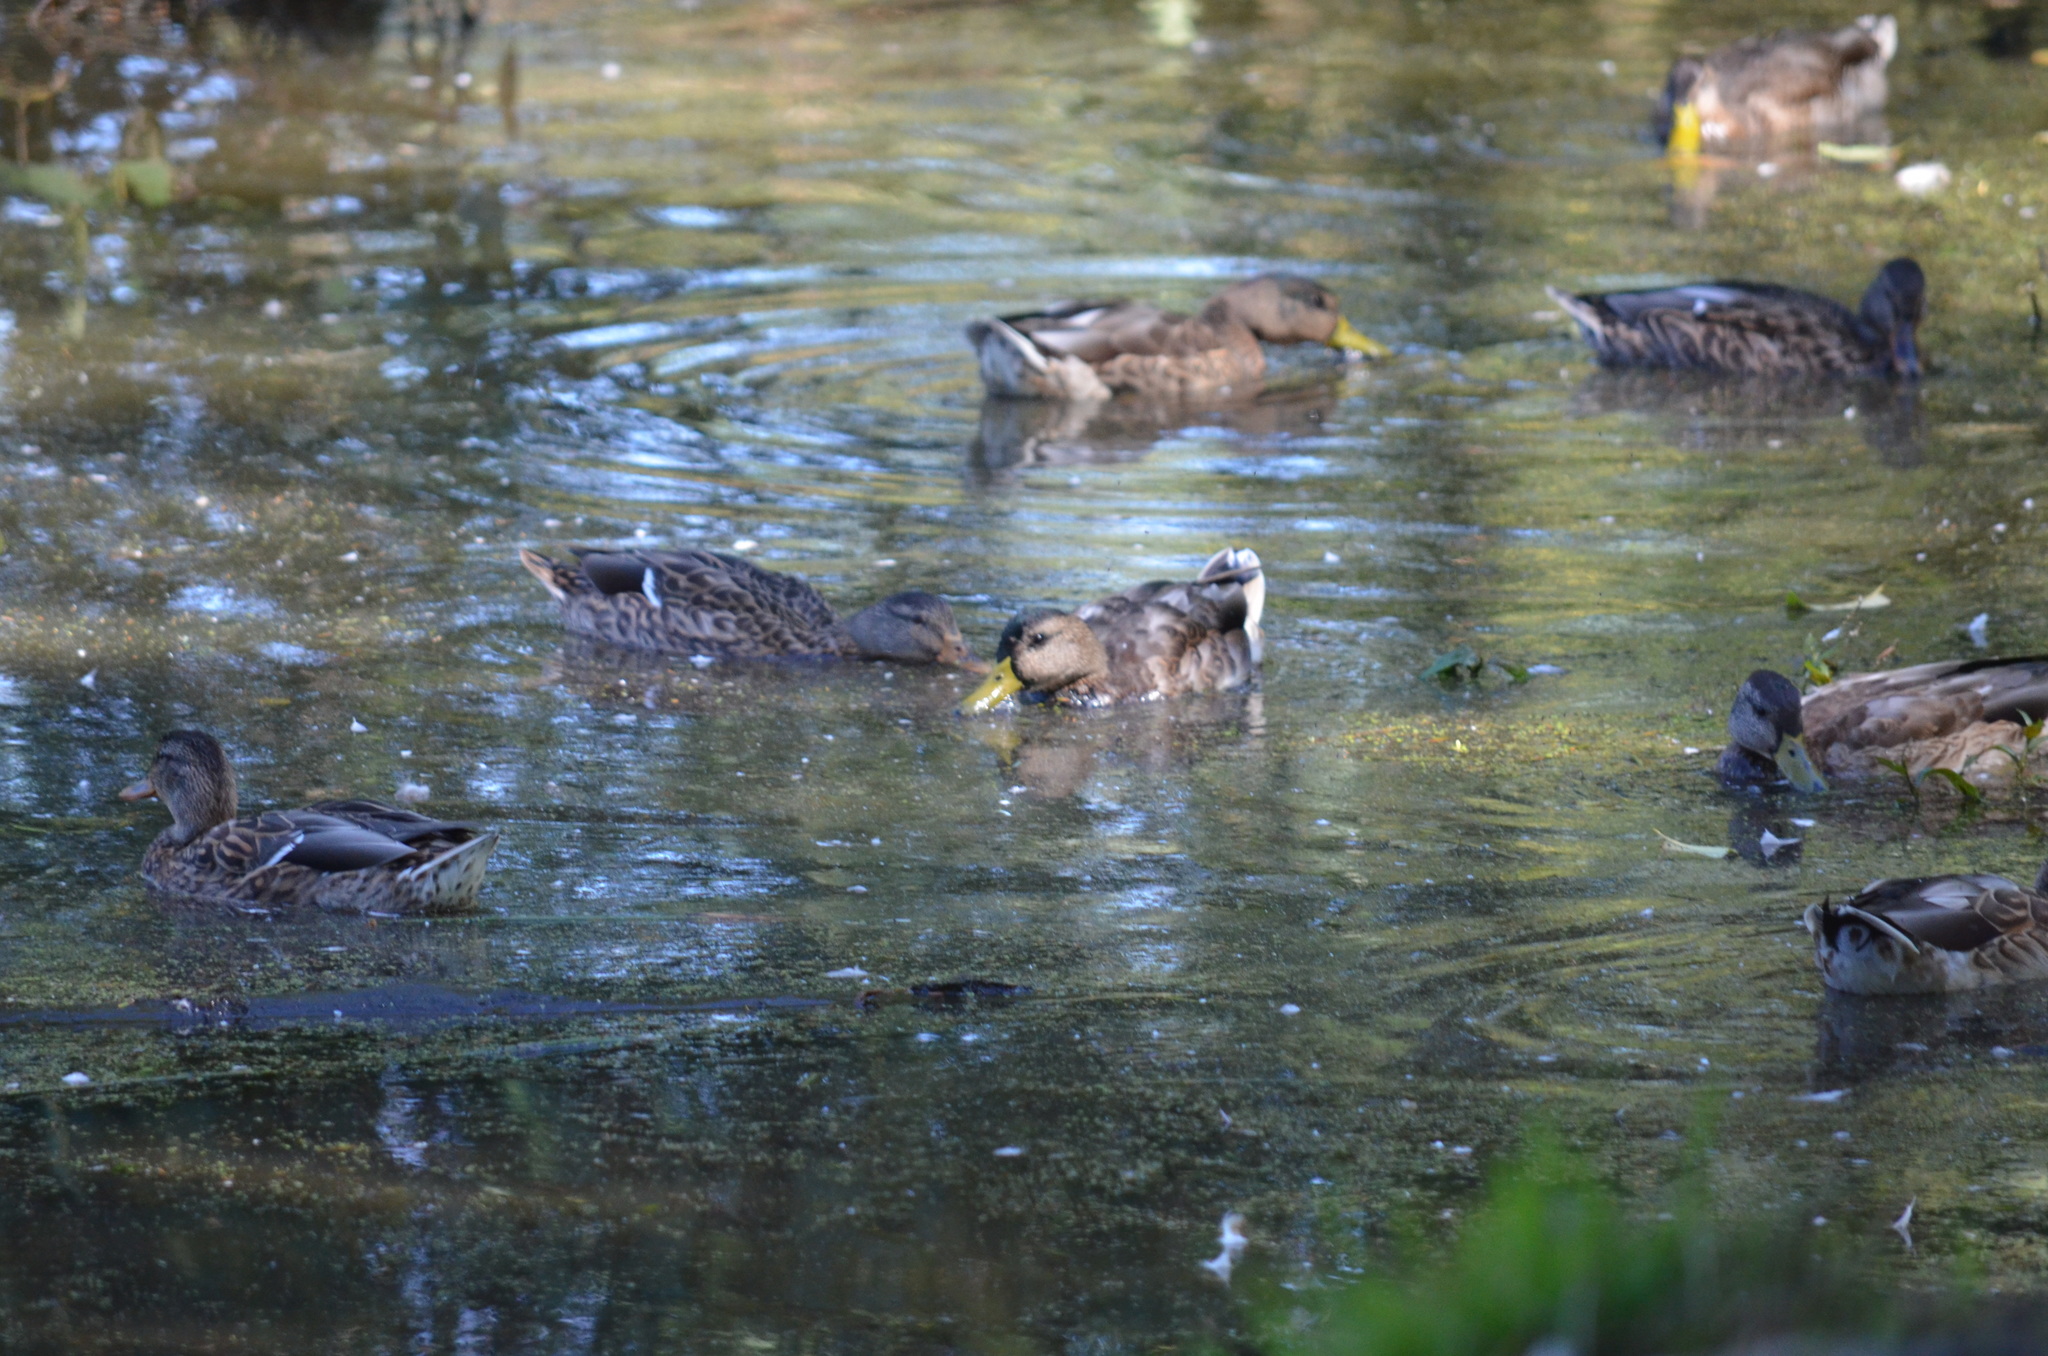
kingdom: Animalia
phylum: Chordata
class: Aves
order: Anseriformes
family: Anatidae
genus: Anas
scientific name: Anas platyrhynchos
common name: Mallard
